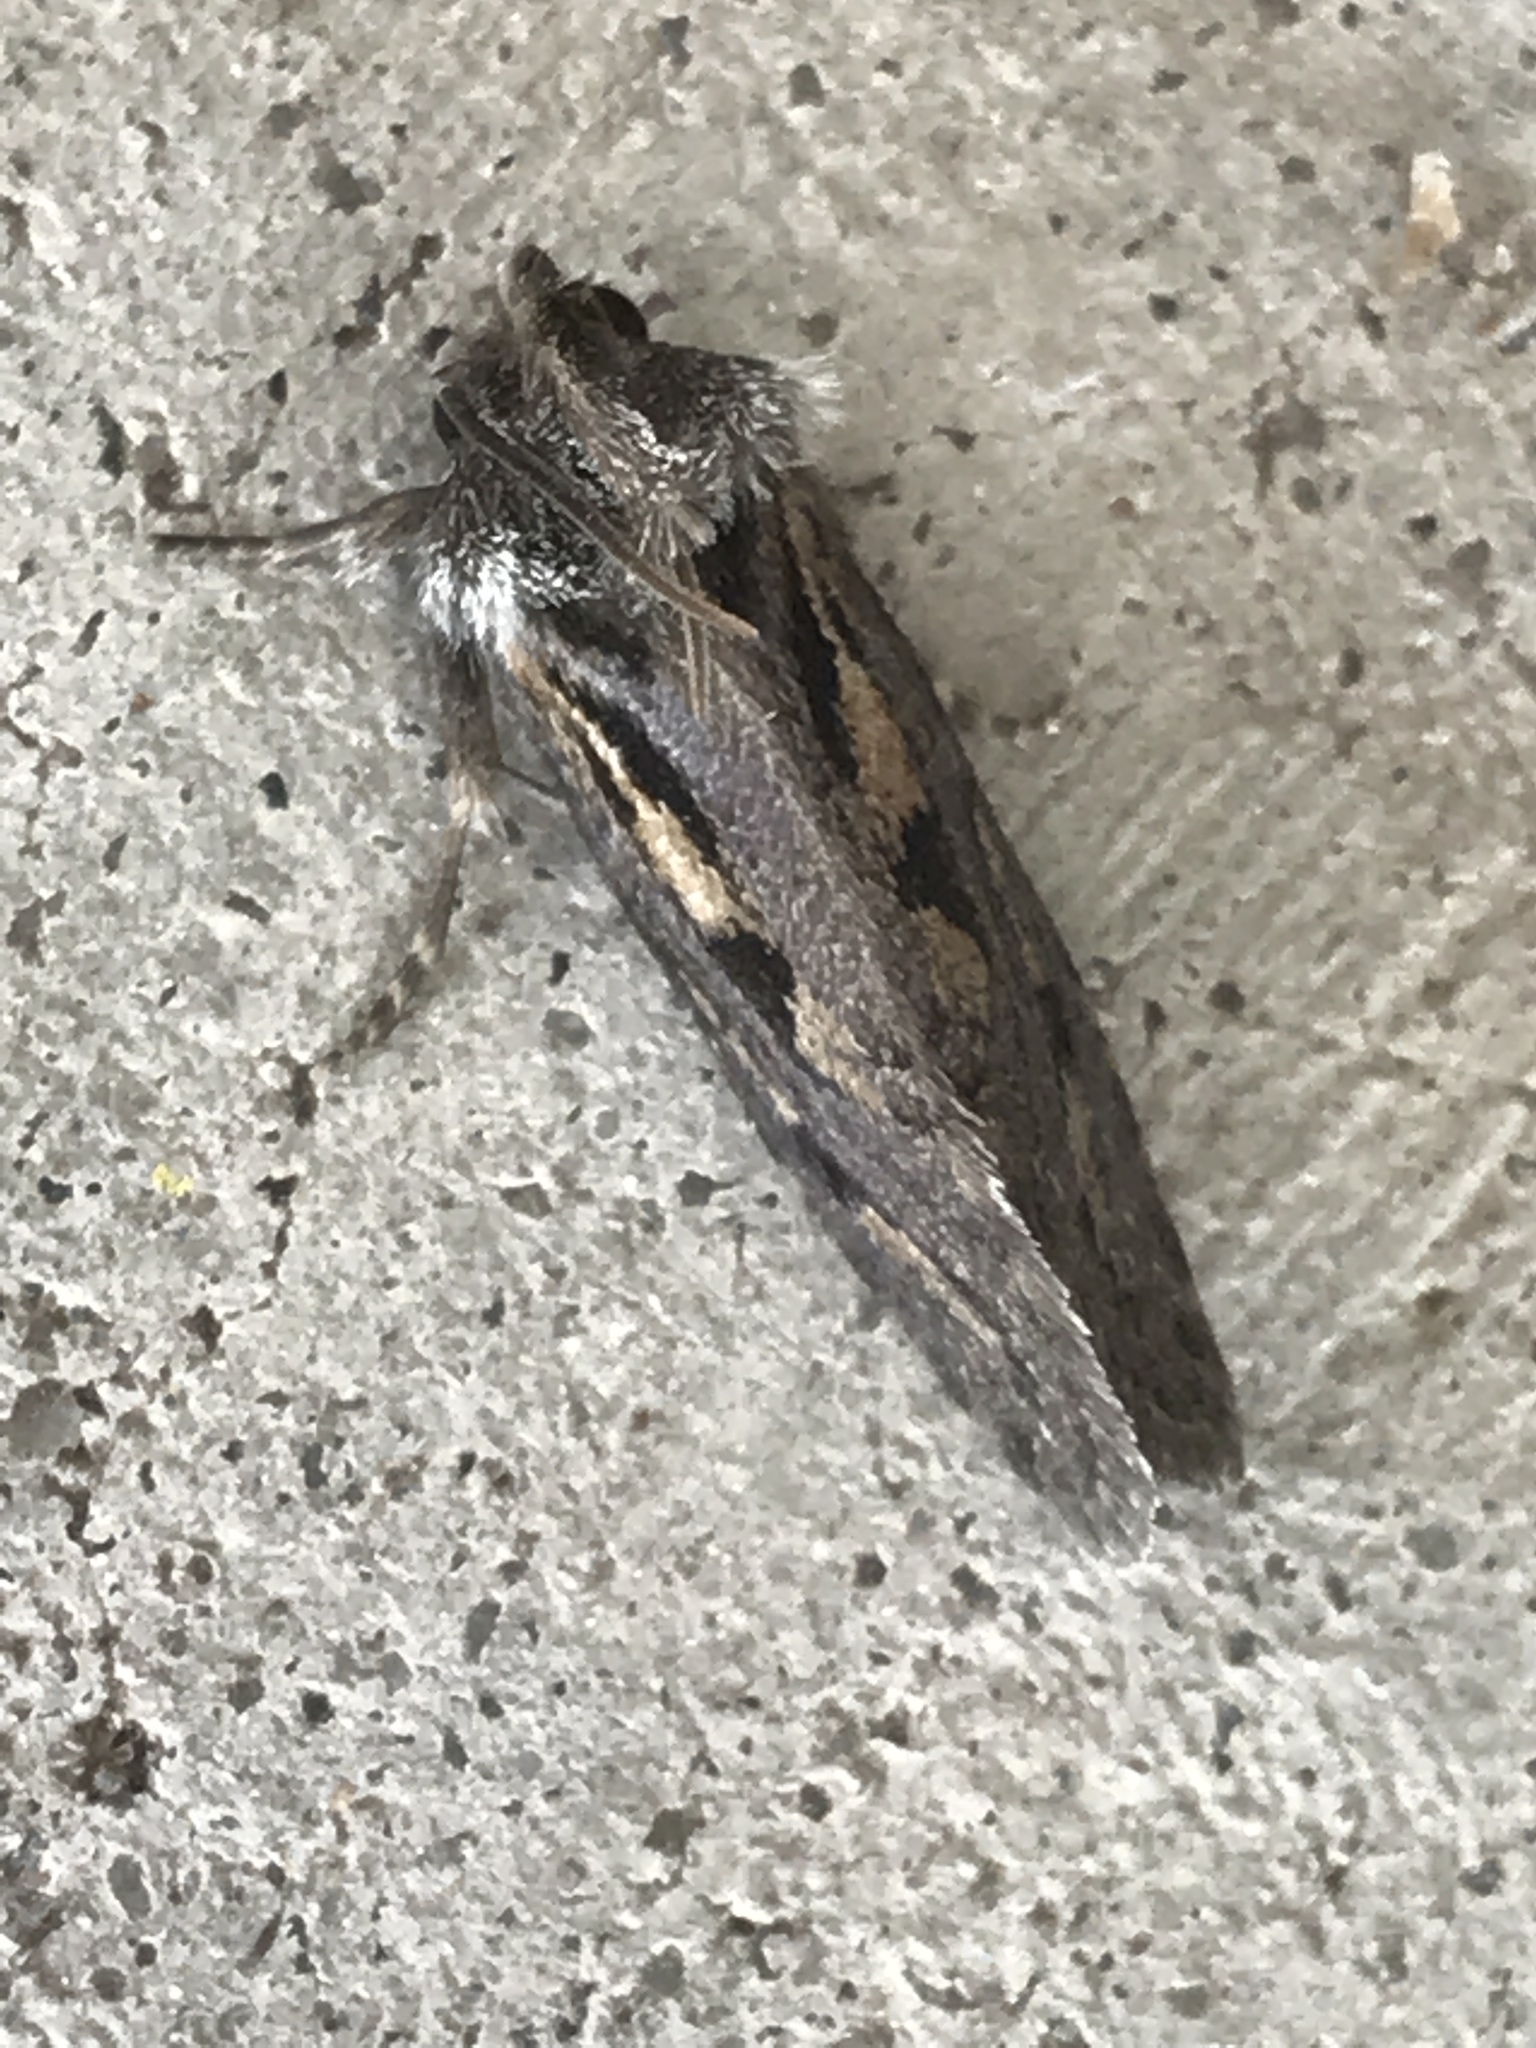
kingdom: Animalia
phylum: Arthropoda
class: Insecta
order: Lepidoptera
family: Tineidae
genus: Acrolophus
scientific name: Acrolophus popeanella
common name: Clemens' grass tubeworm moth
